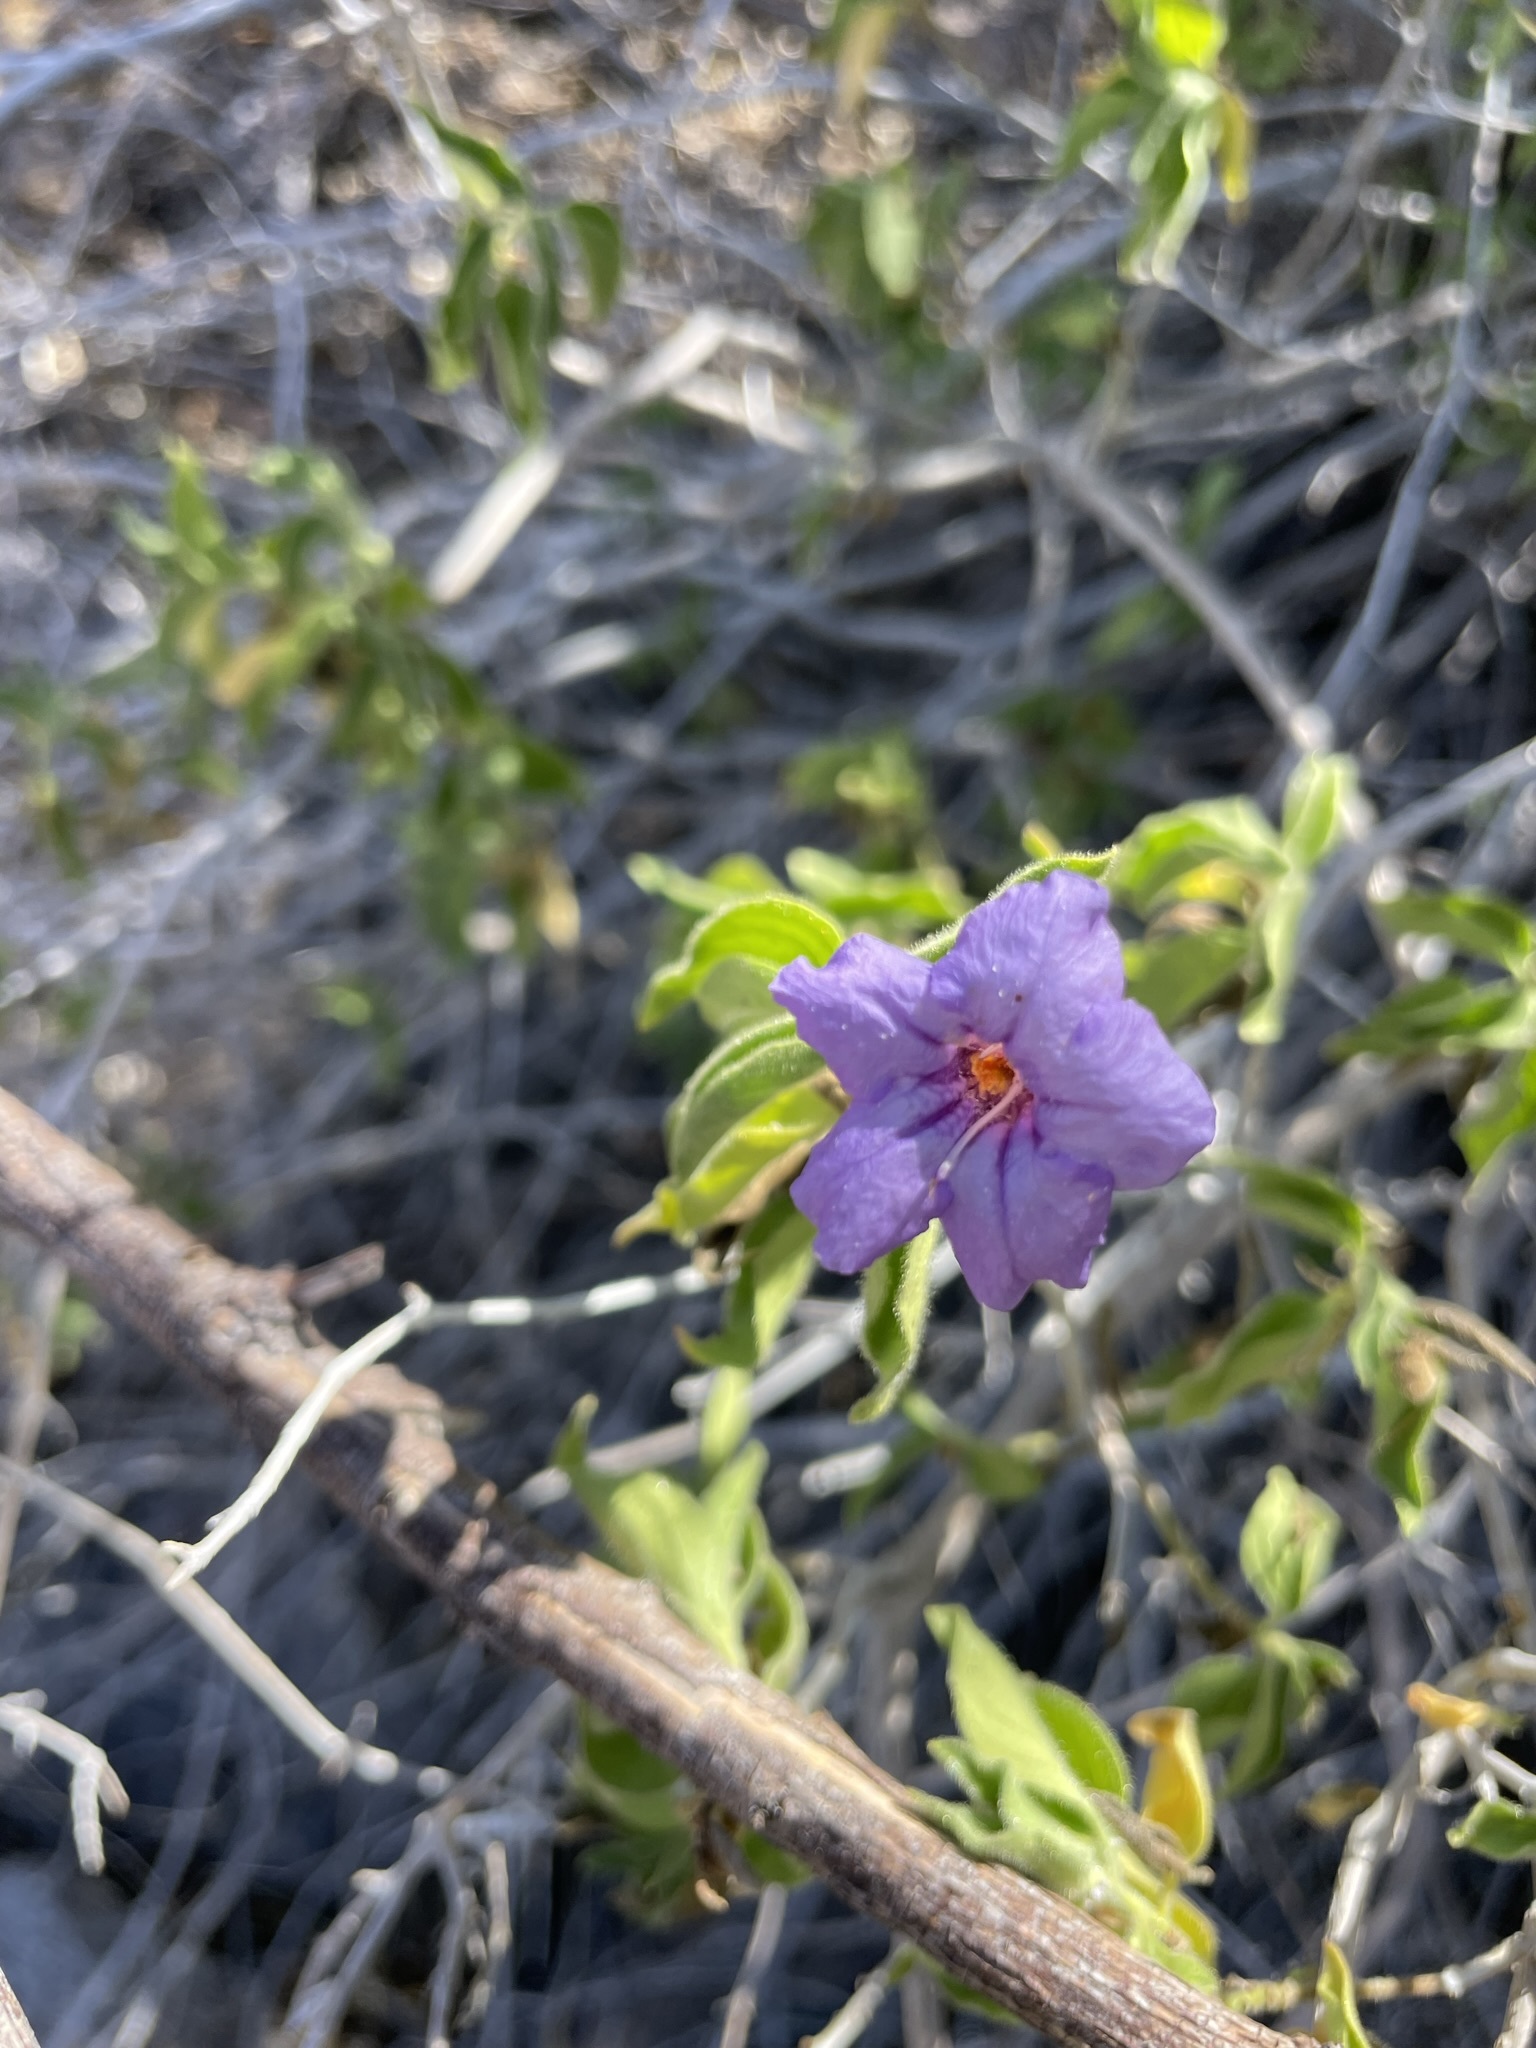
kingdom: Plantae
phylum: Tracheophyta
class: Magnoliopsida
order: Lamiales
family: Acanthaceae
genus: Ruellia
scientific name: Ruellia californica
